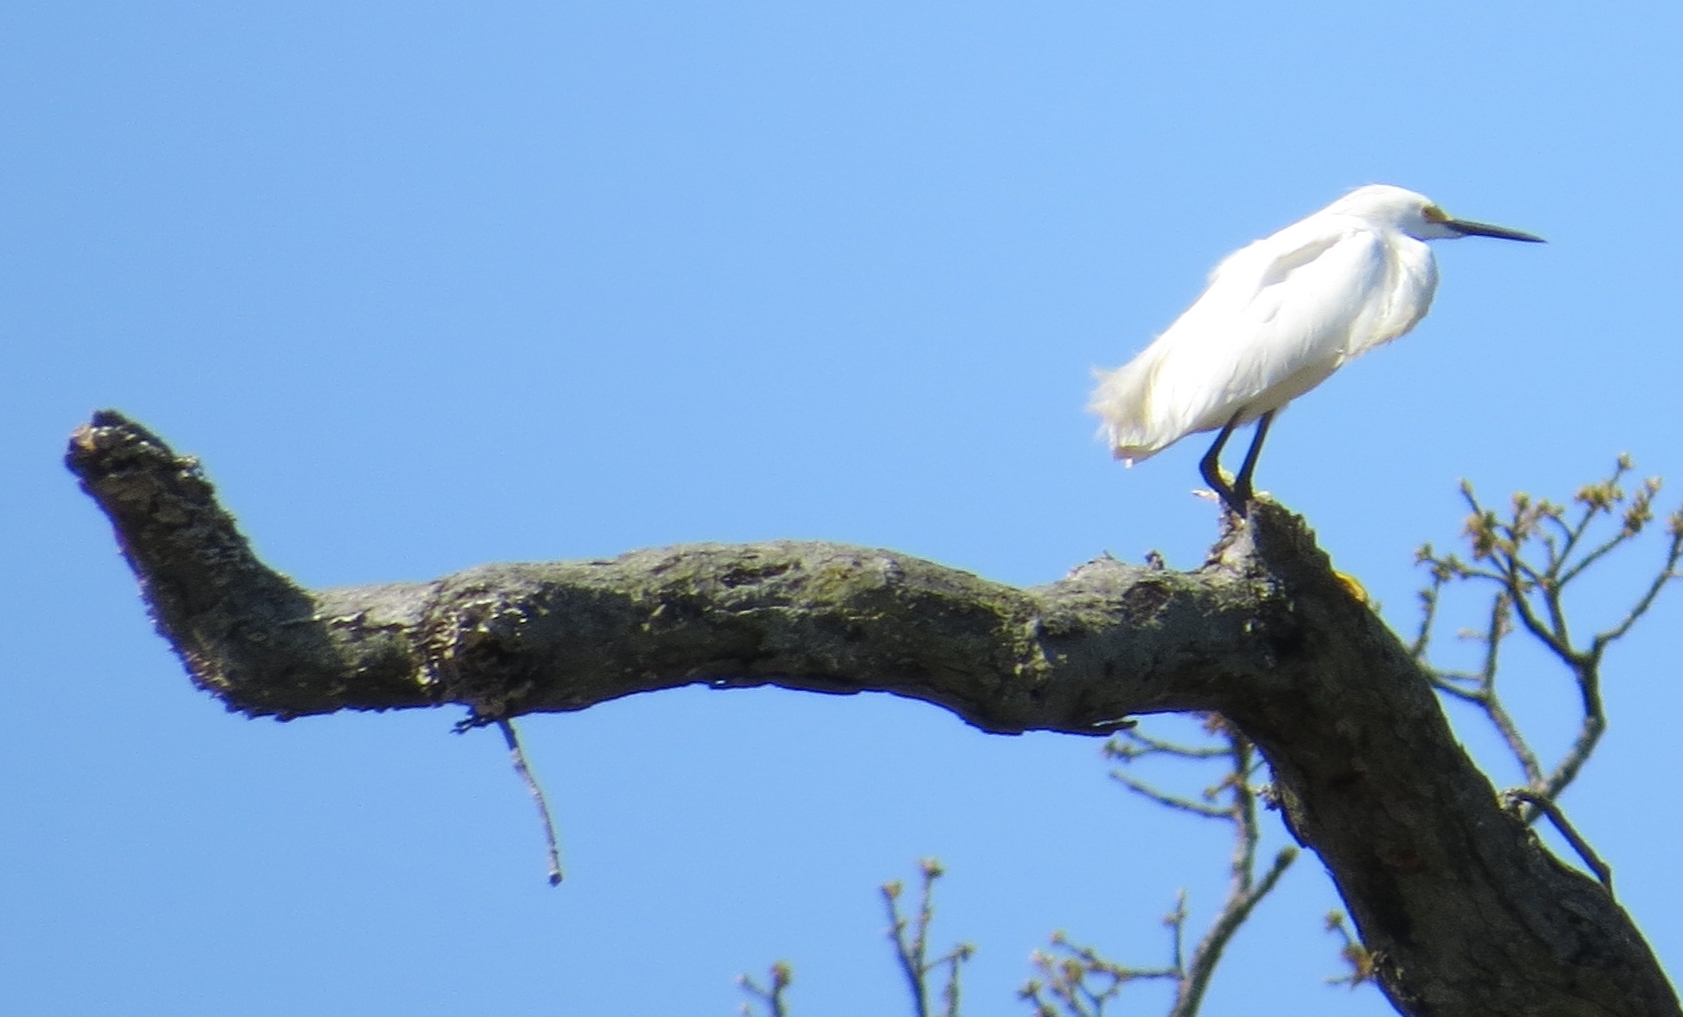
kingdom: Animalia
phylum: Chordata
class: Aves
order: Pelecaniformes
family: Ardeidae
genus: Egretta
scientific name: Egretta thula
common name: Snowy egret
